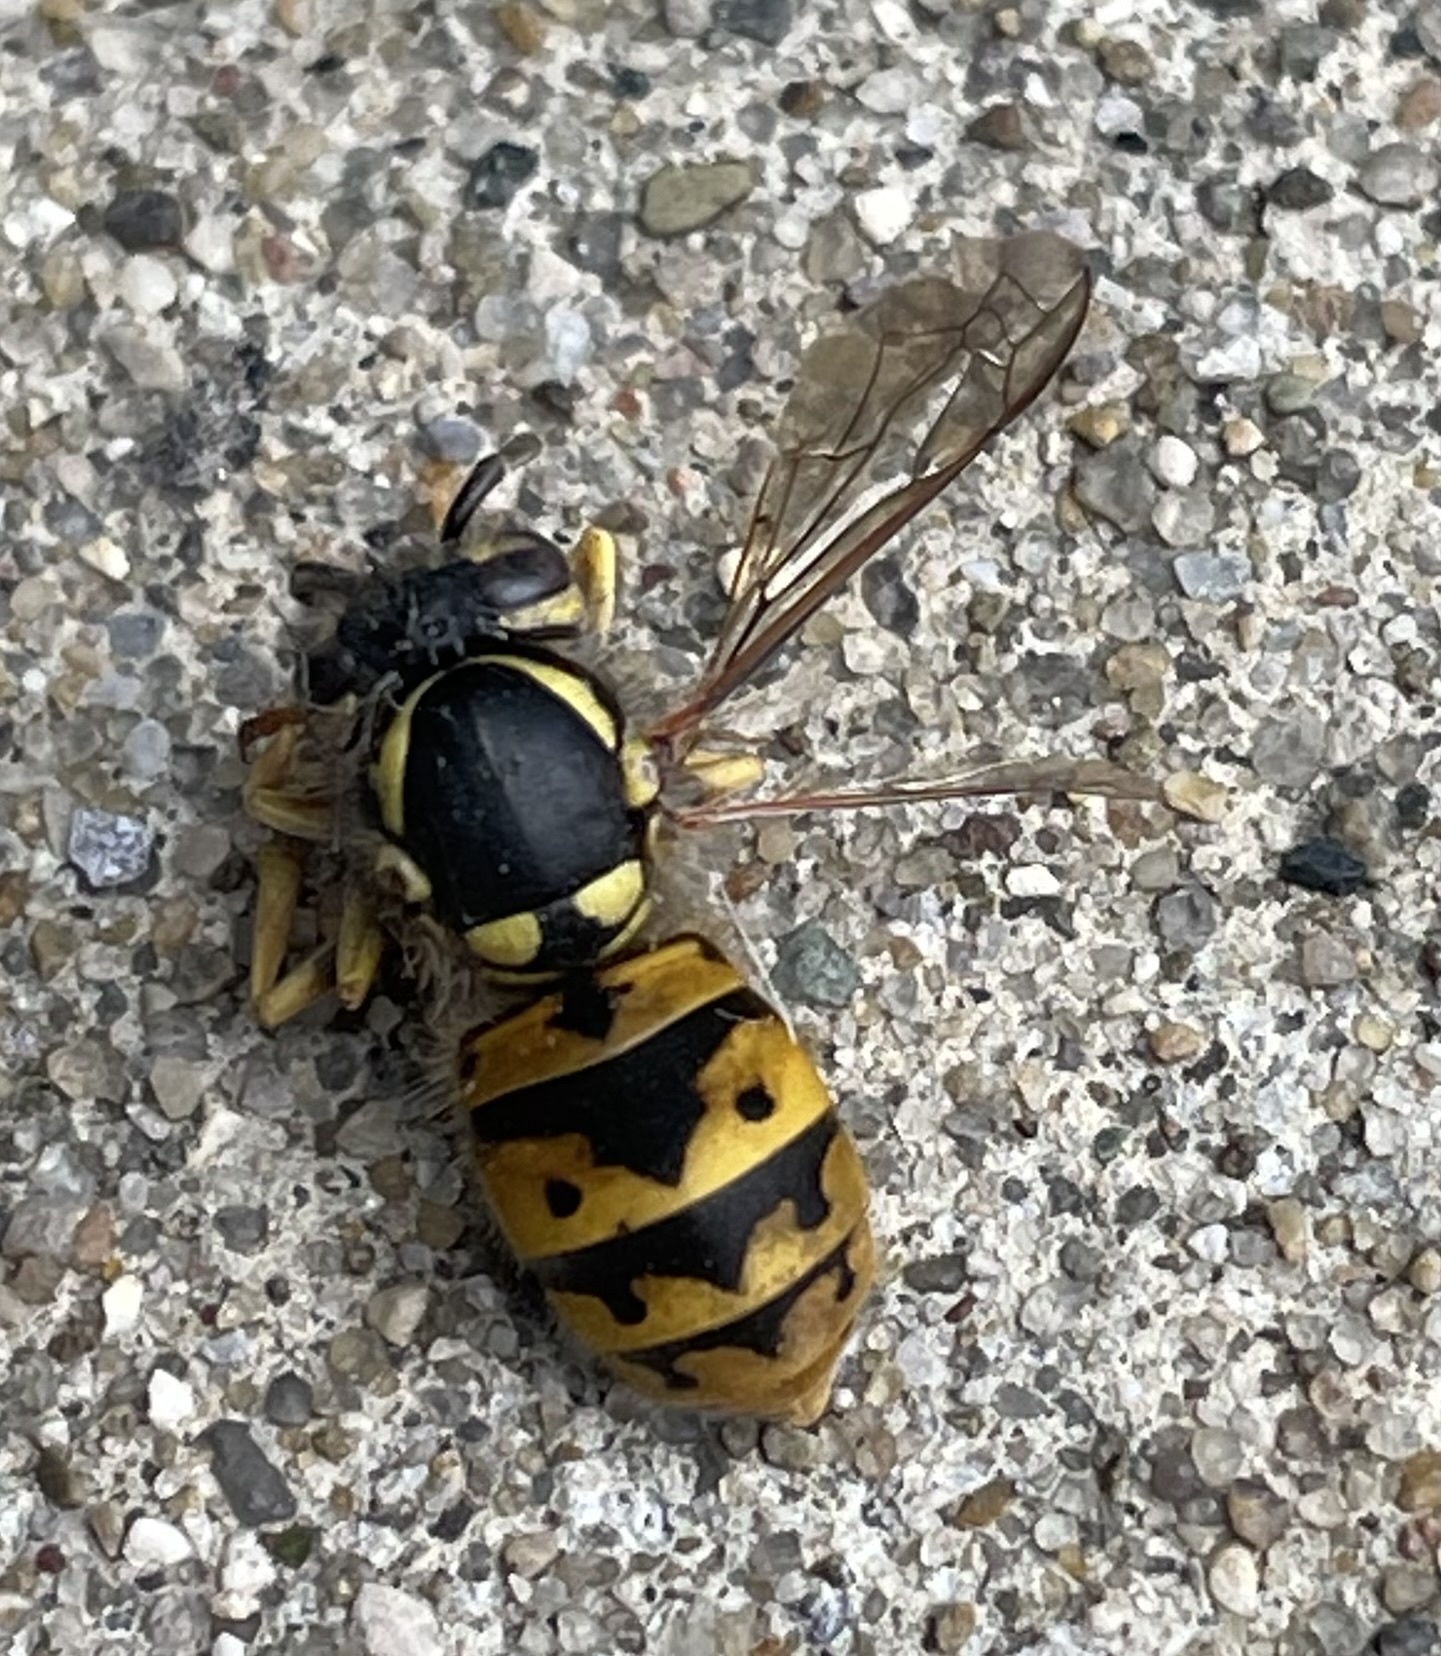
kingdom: Animalia
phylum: Arthropoda
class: Insecta
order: Hymenoptera
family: Vespidae
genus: Vespula
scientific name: Vespula germanica
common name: German wasp
